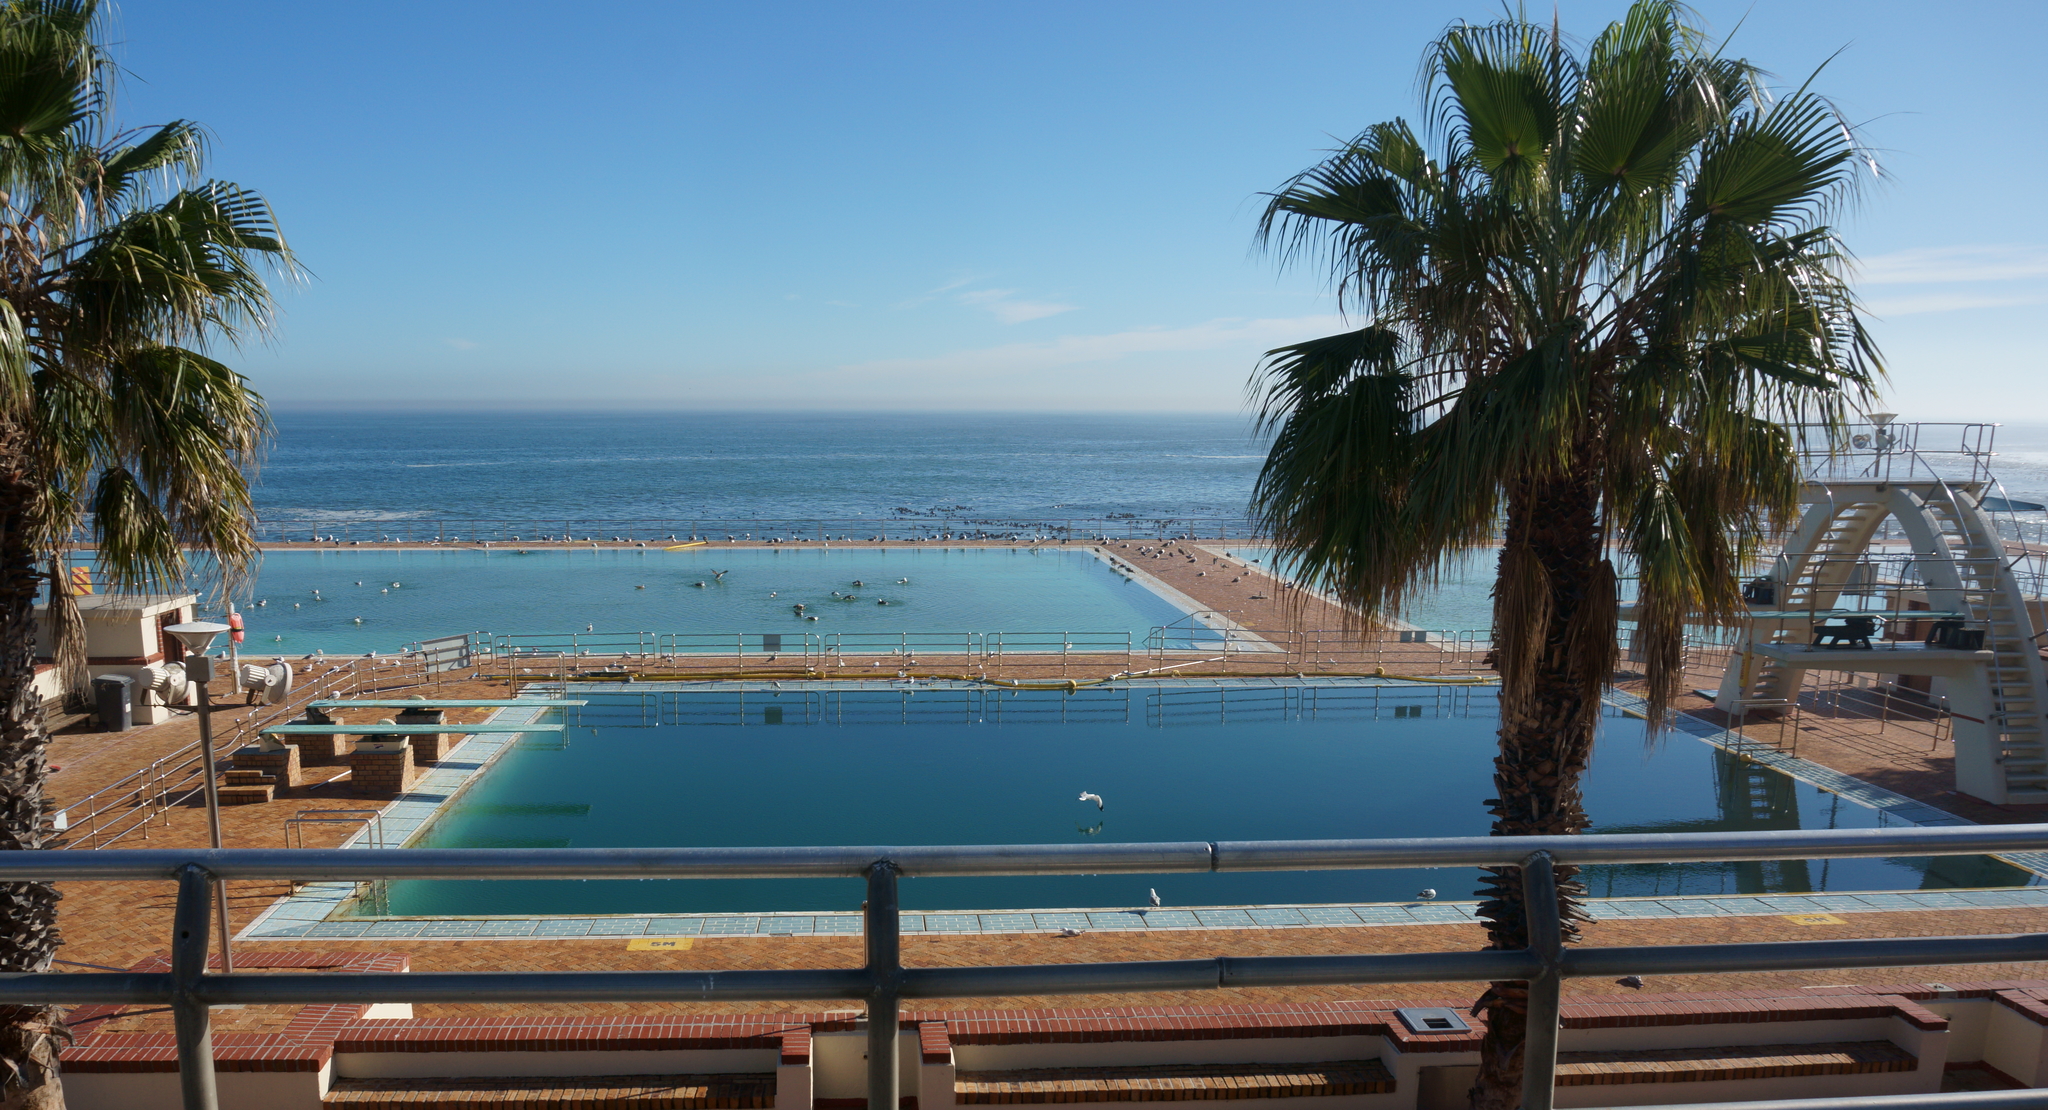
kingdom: Animalia
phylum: Chordata
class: Aves
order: Charadriiformes
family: Laridae
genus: Larus
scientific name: Larus dominicanus
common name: Kelp gull
